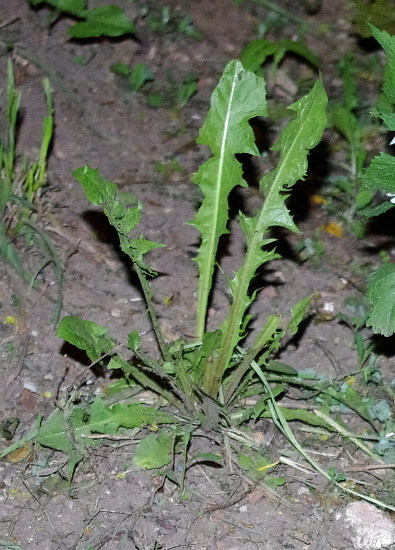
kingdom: Plantae
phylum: Tracheophyta
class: Magnoliopsida
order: Asterales
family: Asteraceae
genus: Taraxacum
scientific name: Taraxacum officinale
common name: Common dandelion
